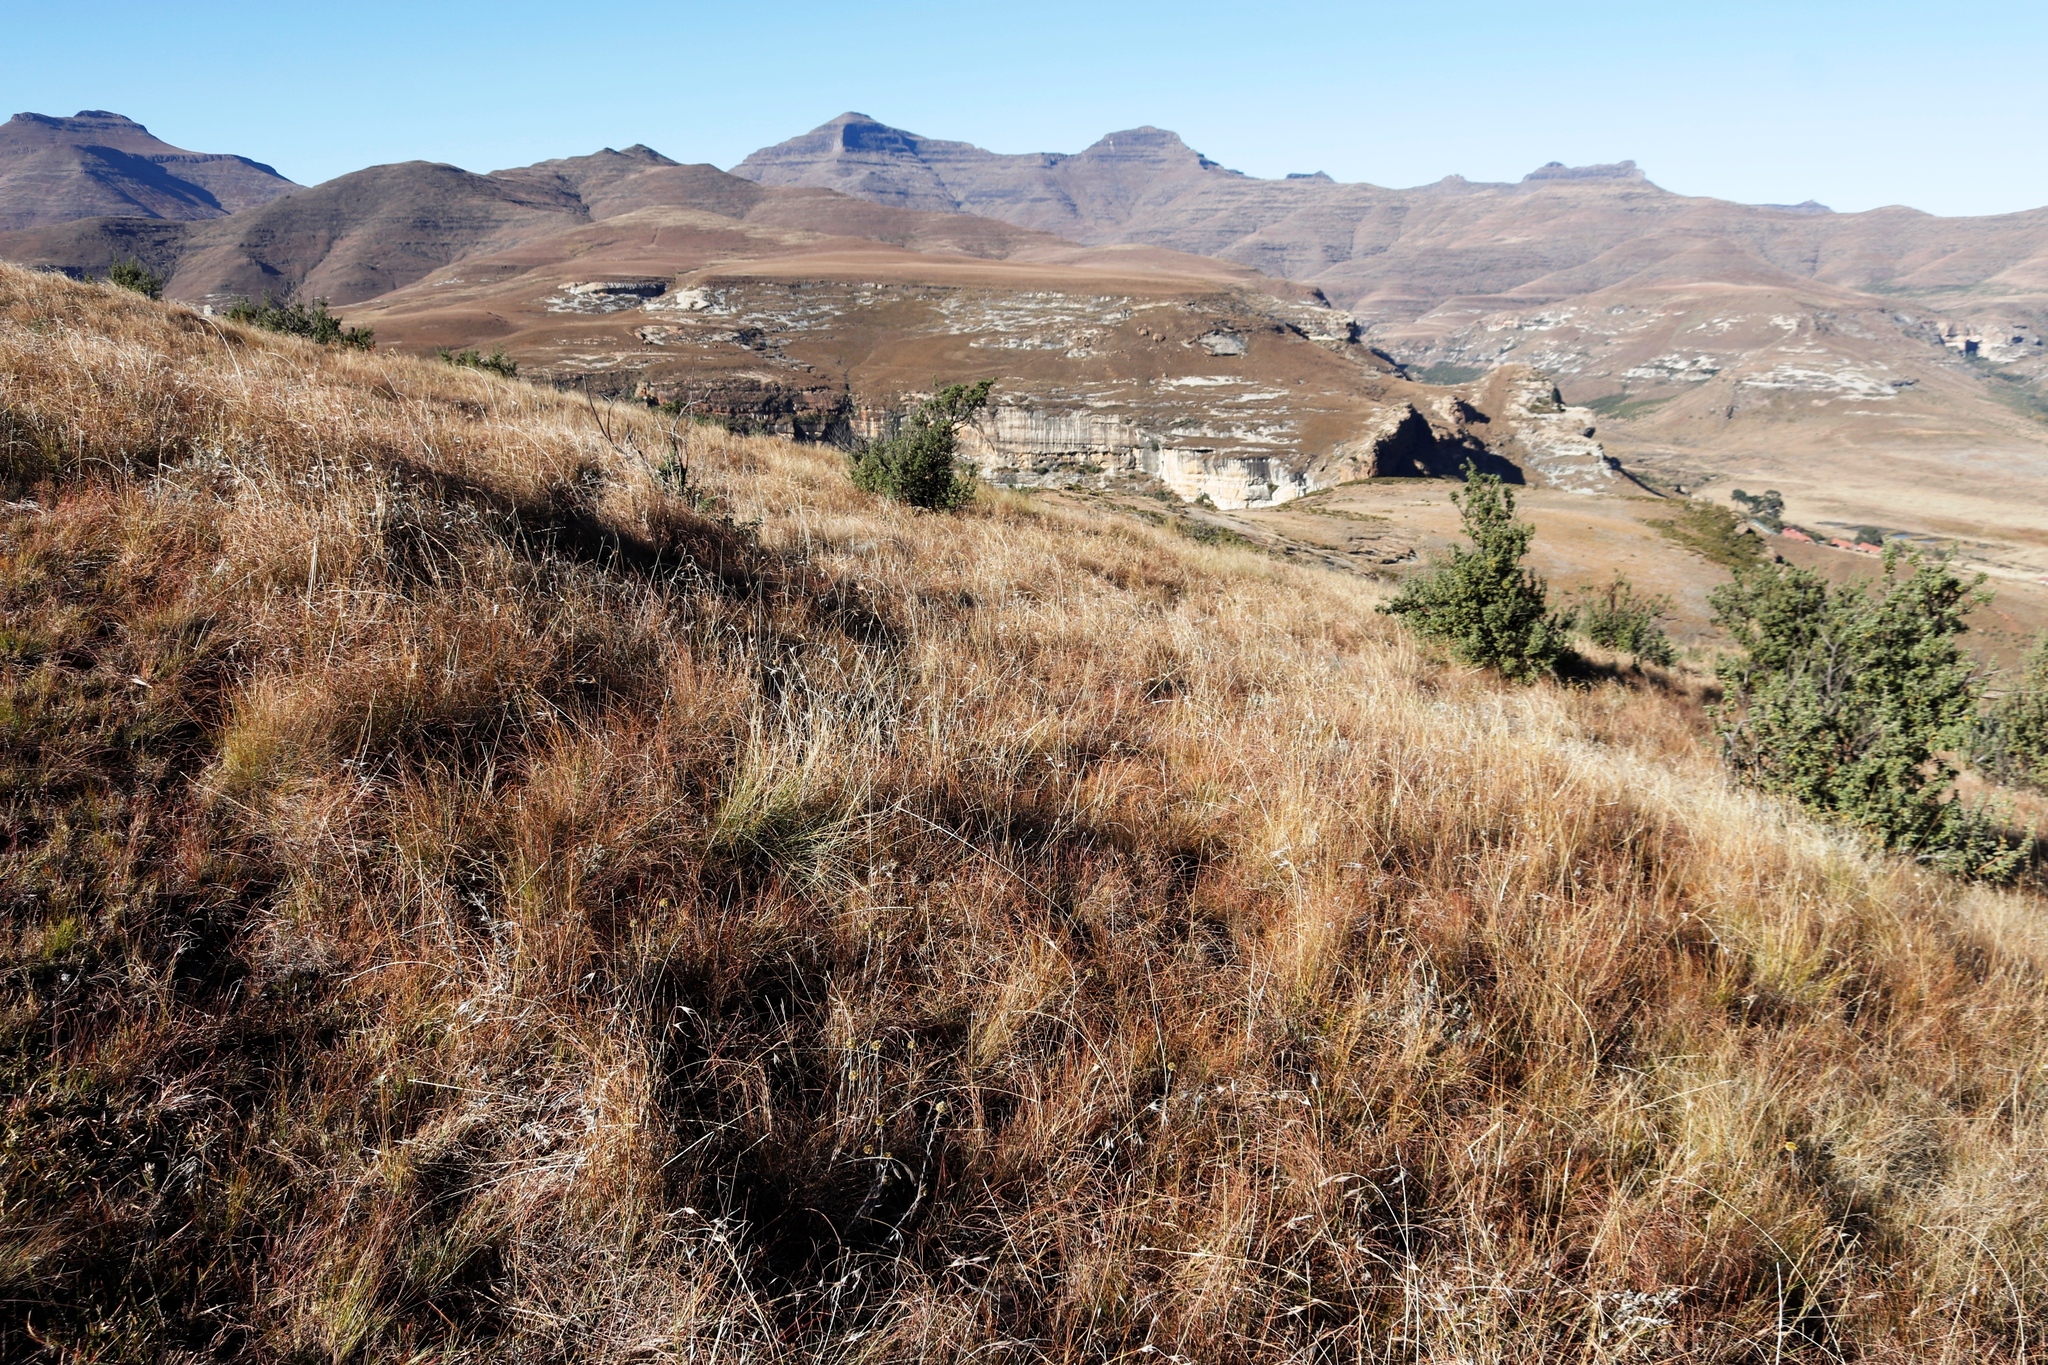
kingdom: Plantae
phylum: Tracheophyta
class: Liliopsida
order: Poales
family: Poaceae
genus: Themeda
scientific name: Themeda triandra
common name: Kangaroo grass
